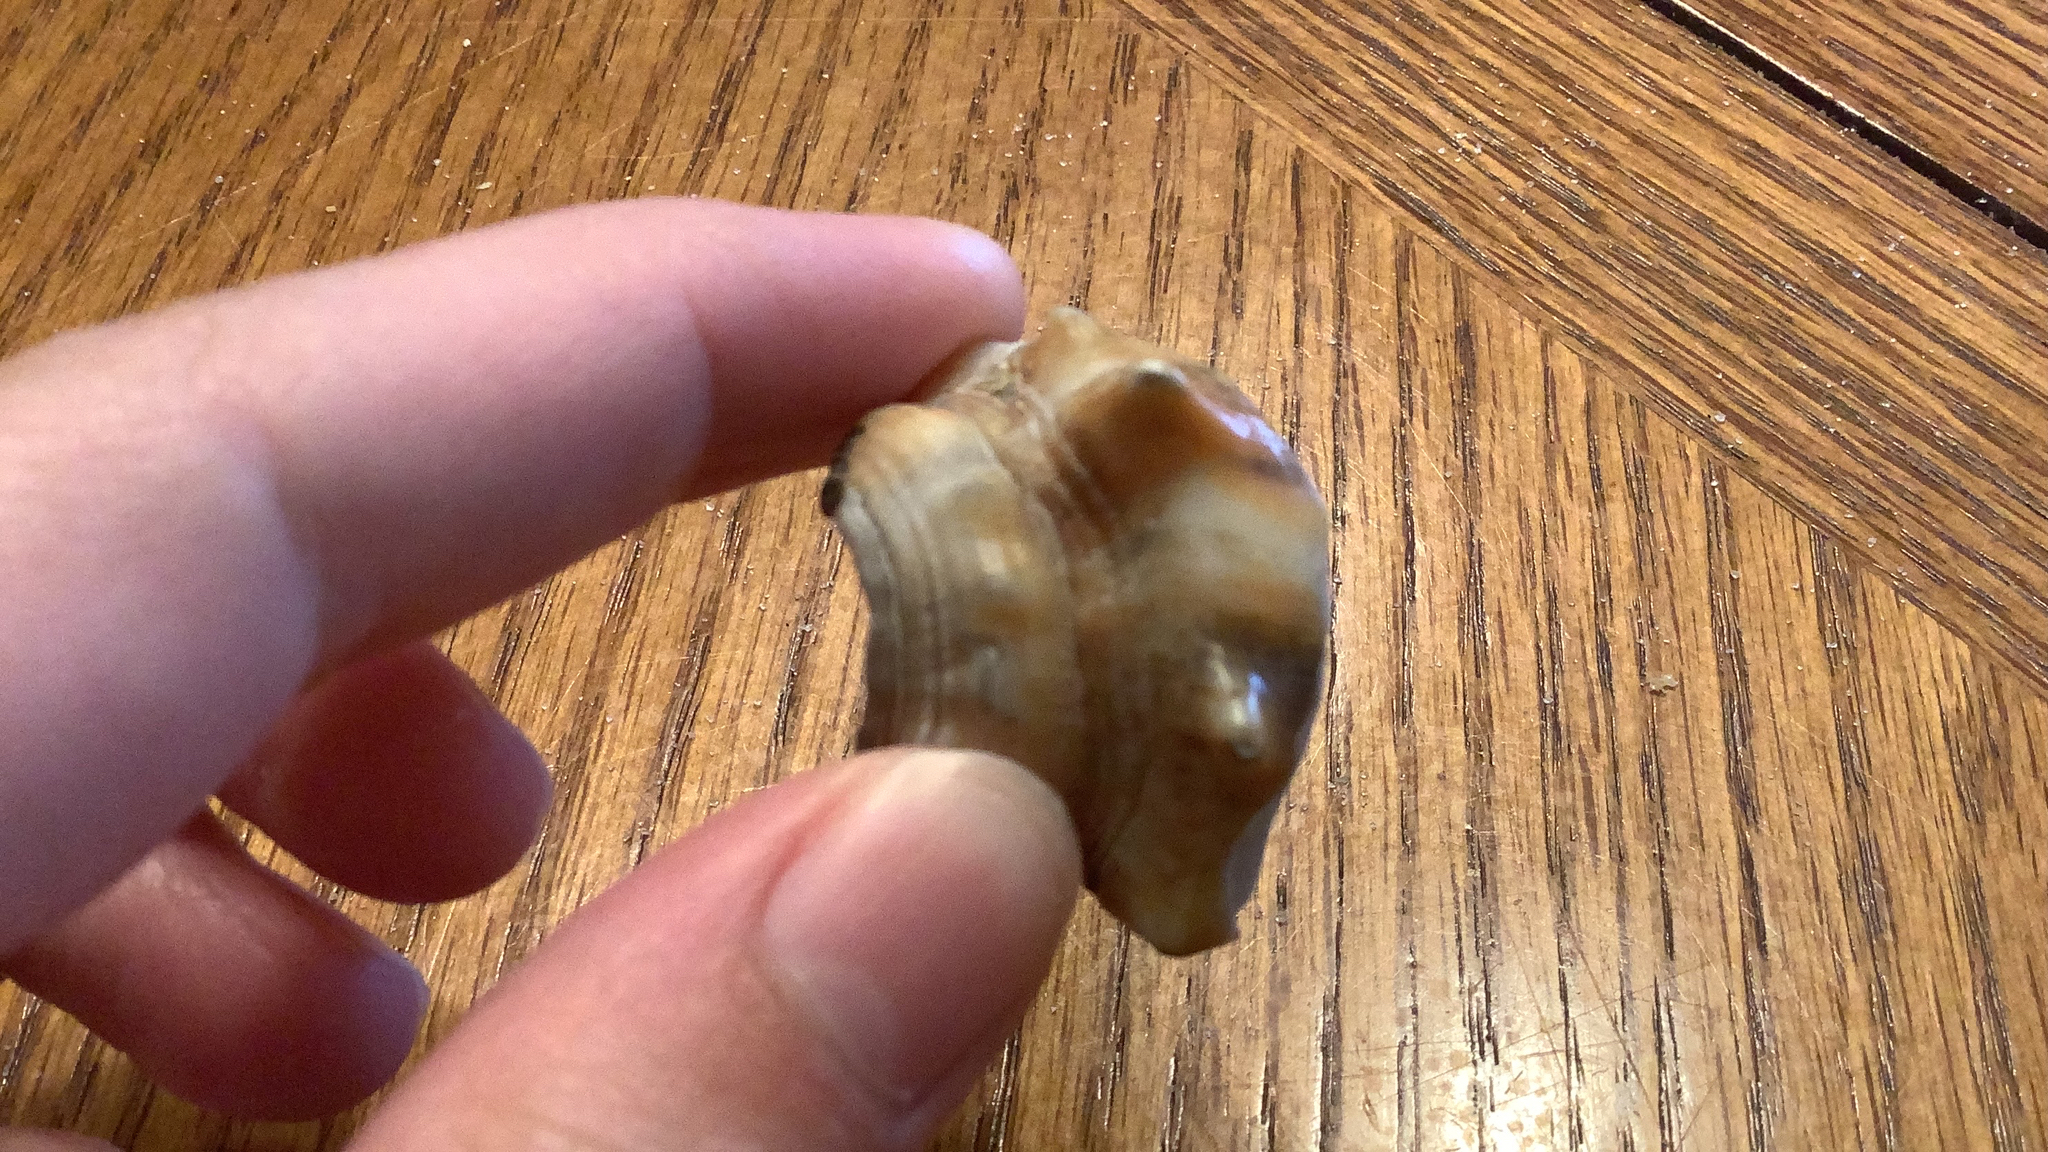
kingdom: Animalia
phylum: Mollusca
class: Gastropoda
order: Littorinimorpha
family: Strombidae
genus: Strombus
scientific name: Strombus alatus
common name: Florida fighting conch
